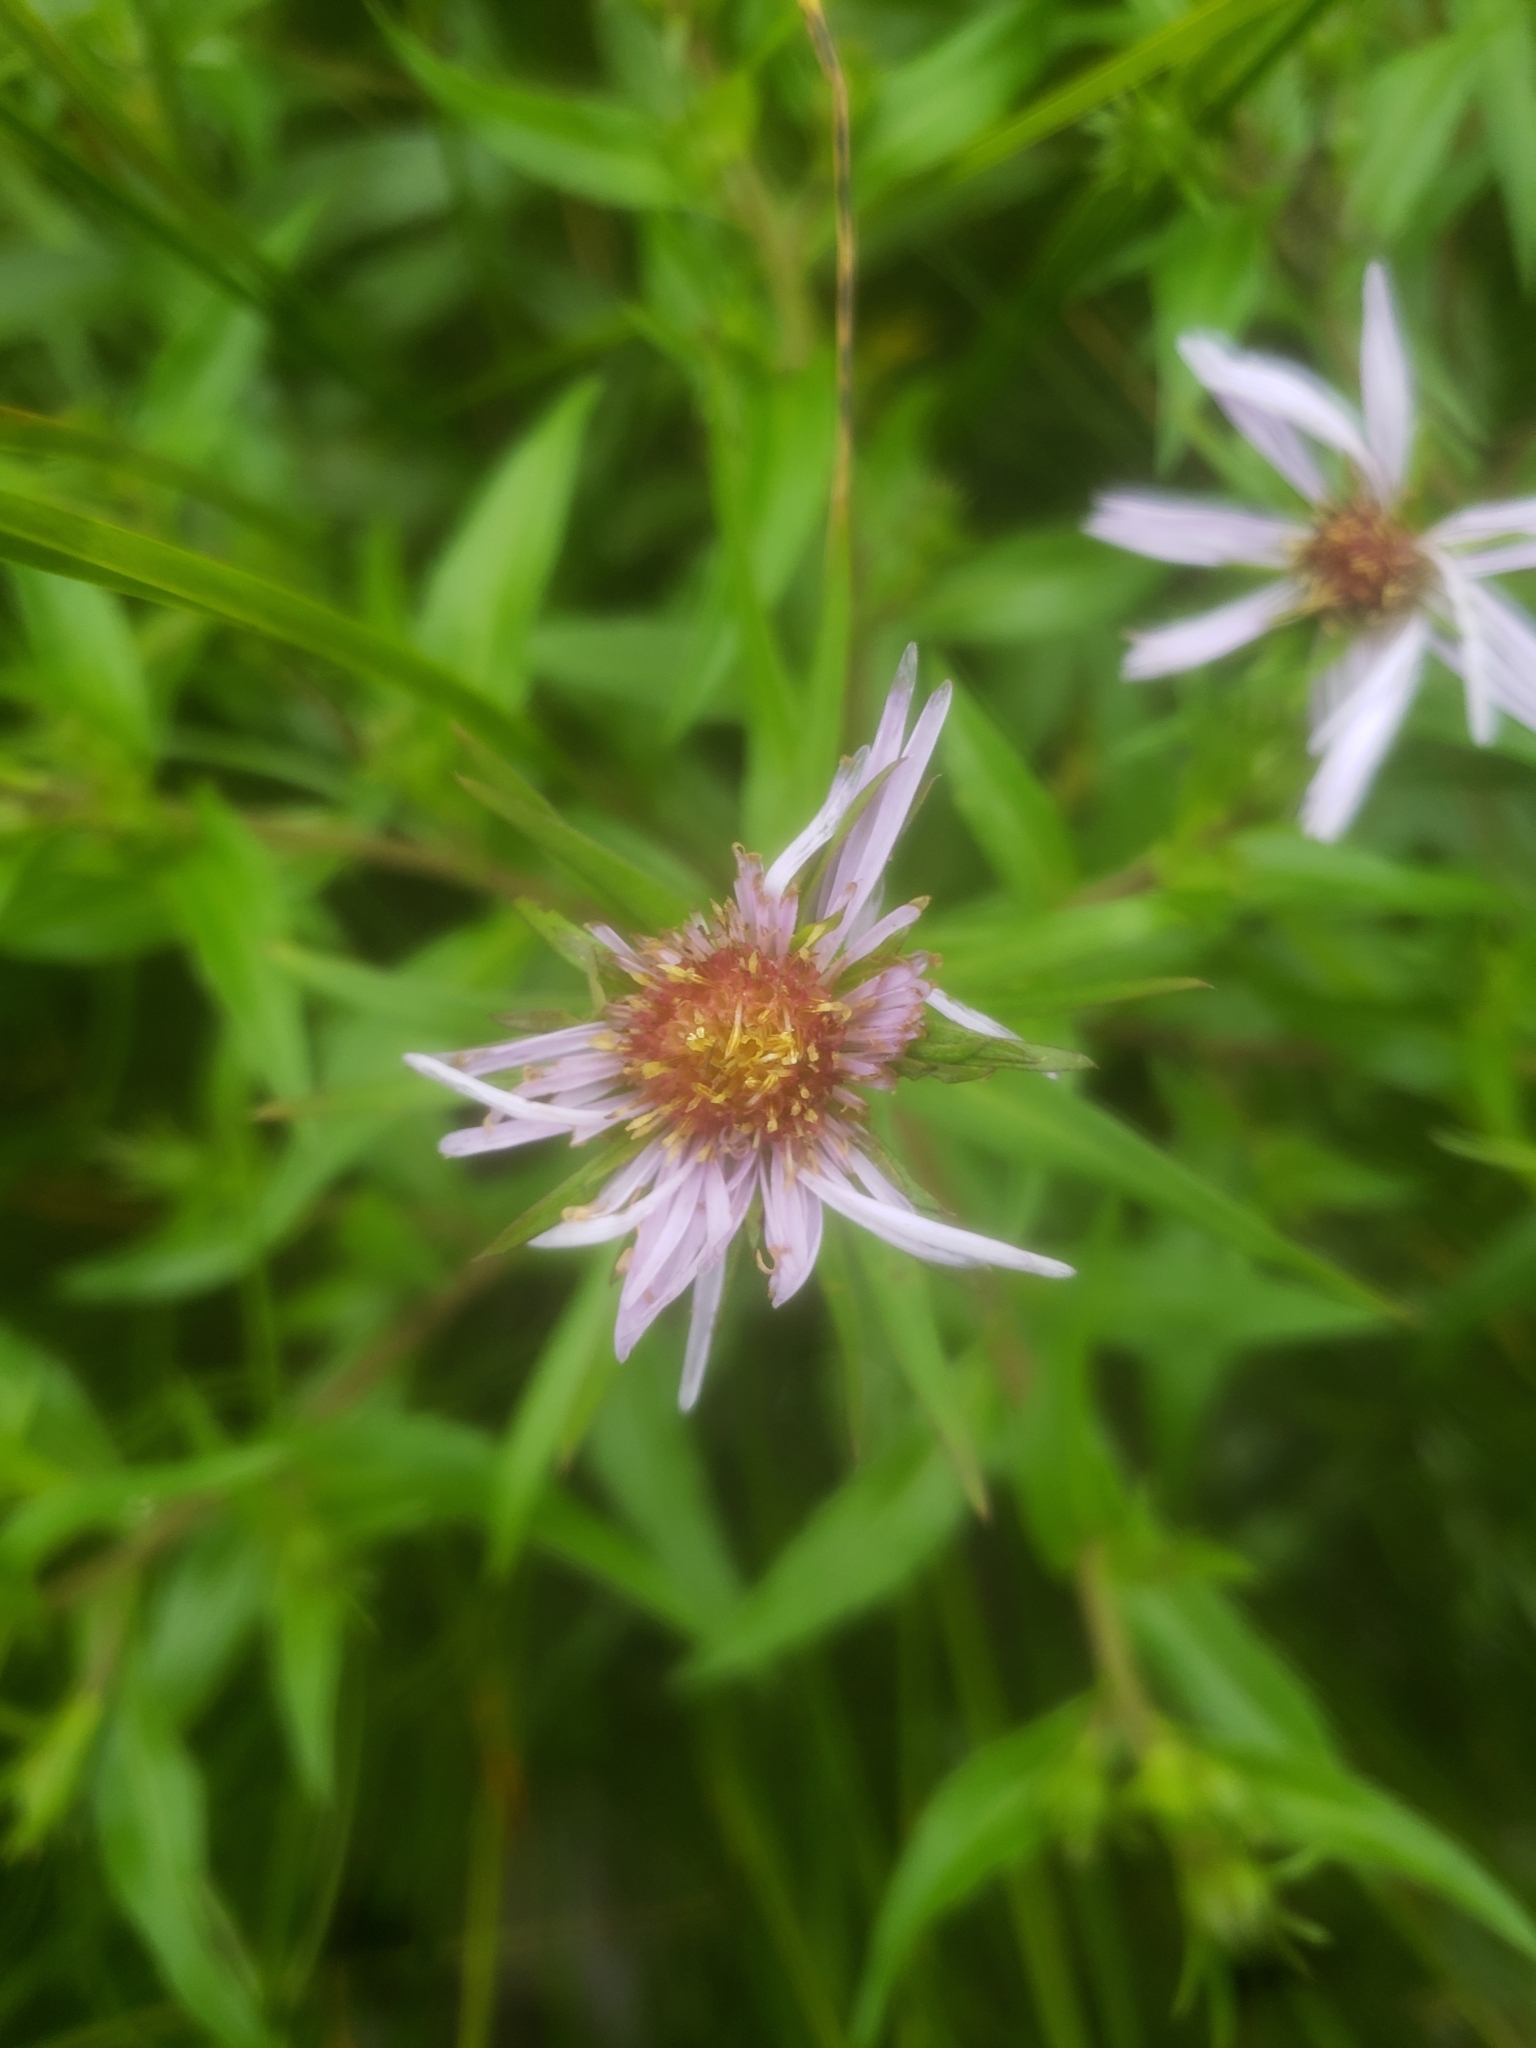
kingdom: Plantae
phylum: Tracheophyta
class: Magnoliopsida
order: Asterales
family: Asteraceae
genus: Symphyotrichum
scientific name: Symphyotrichum puniceum
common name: Bog aster
